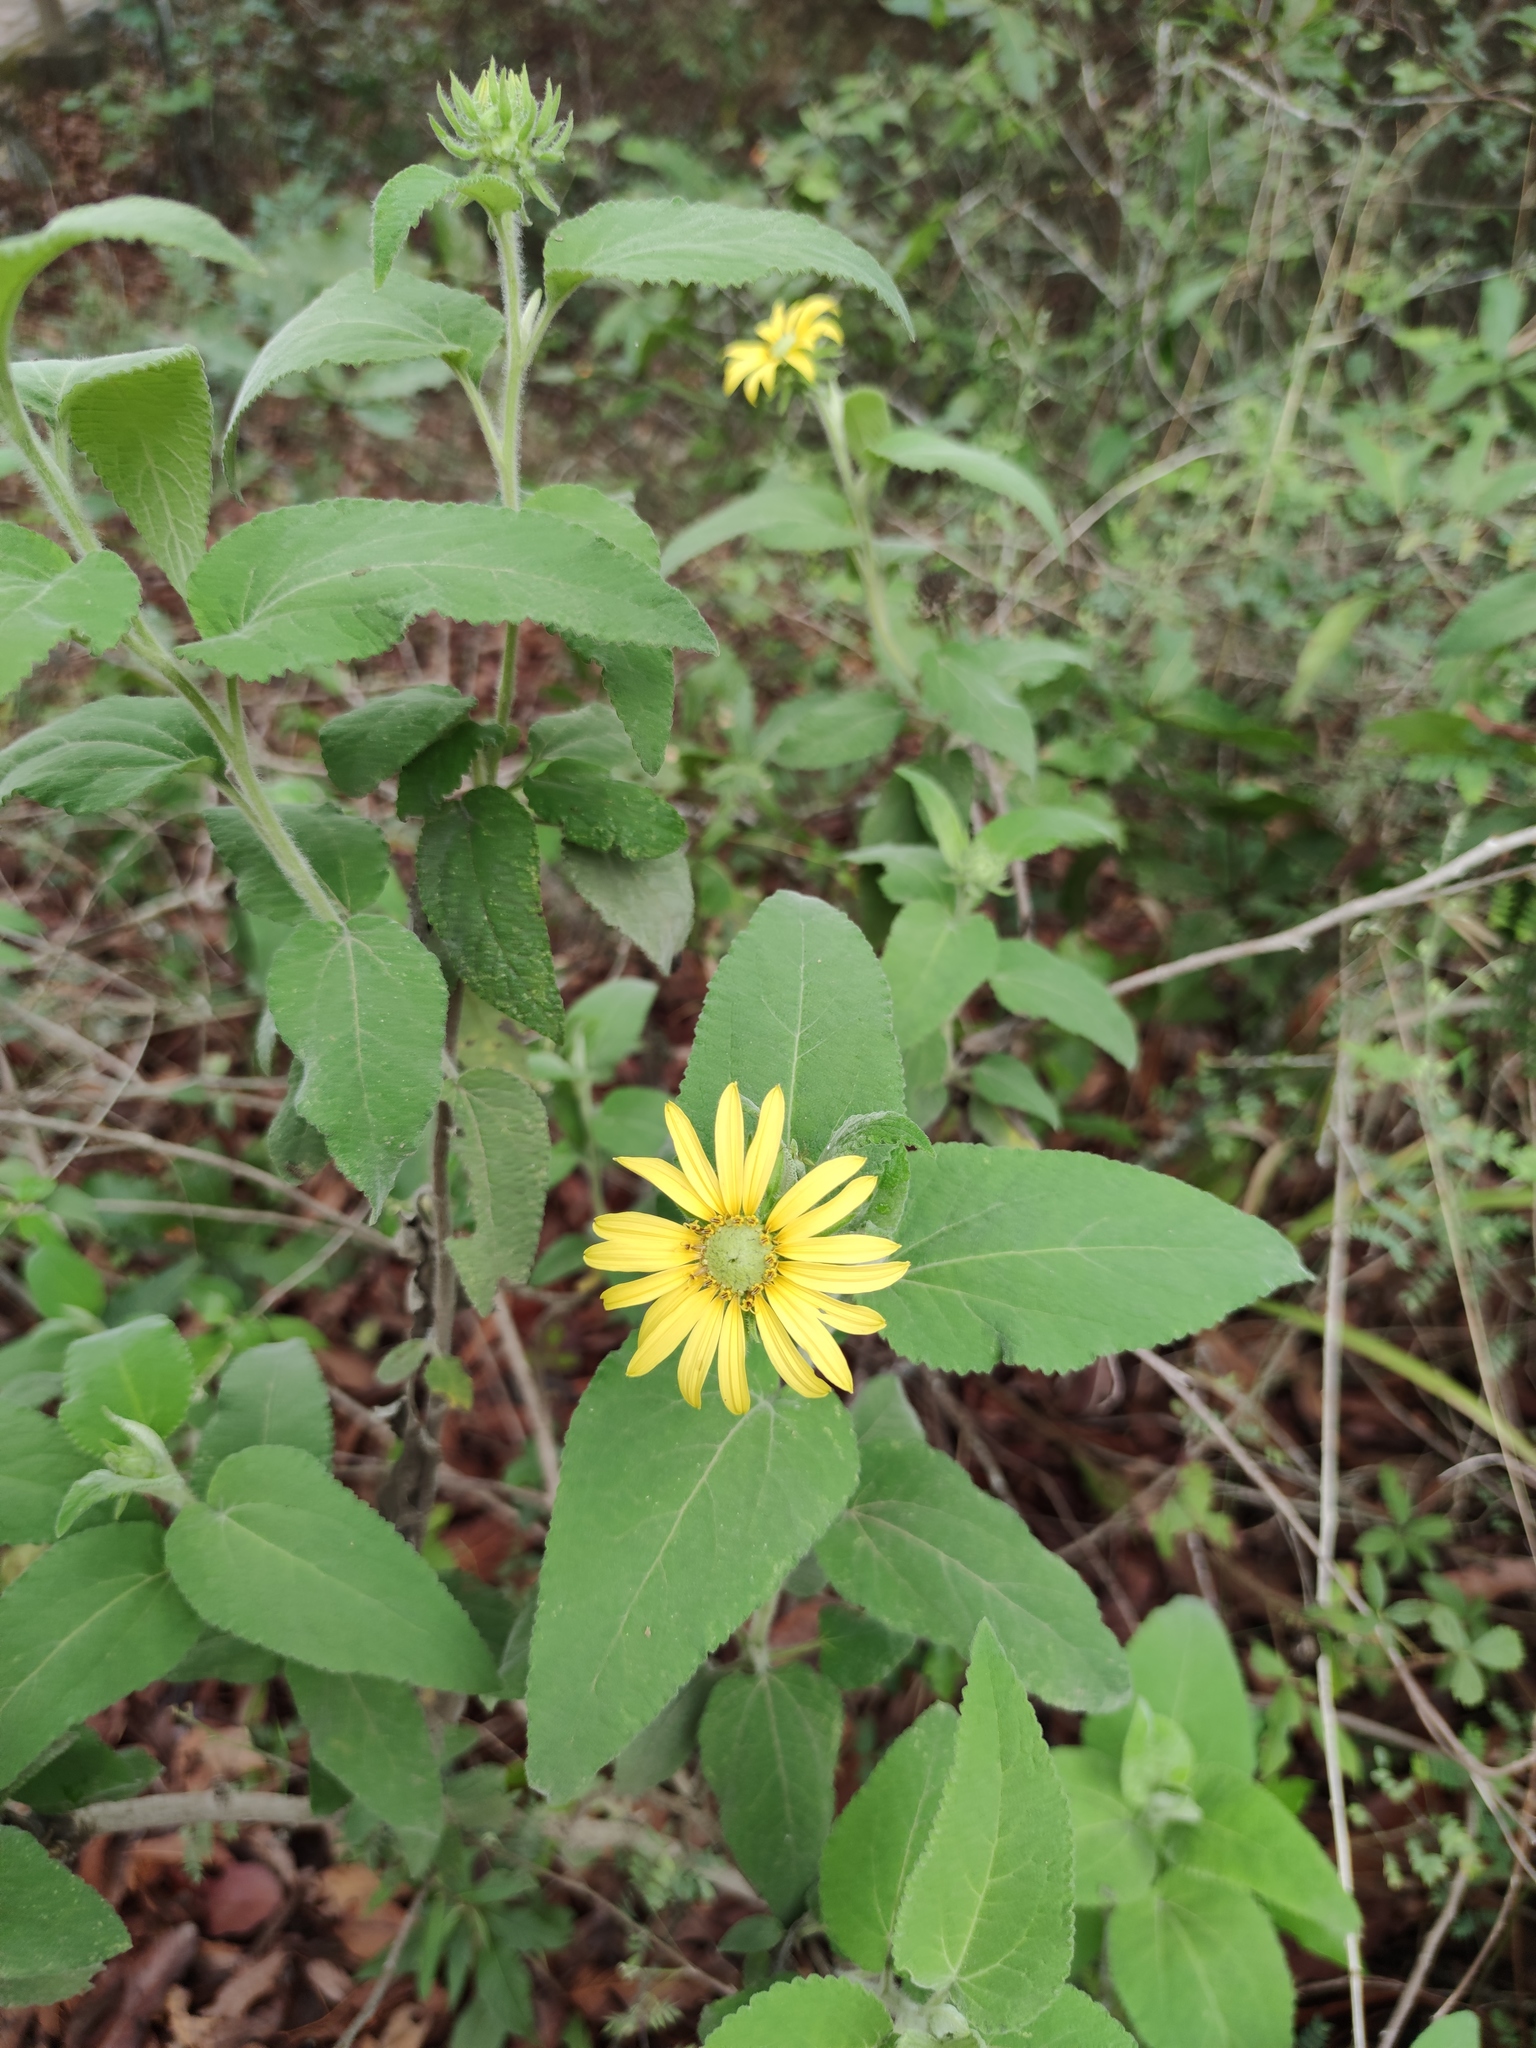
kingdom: Plantae
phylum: Tracheophyta
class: Magnoliopsida
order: Asterales
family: Asteraceae
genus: Vigethia
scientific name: Vigethia mexicana
